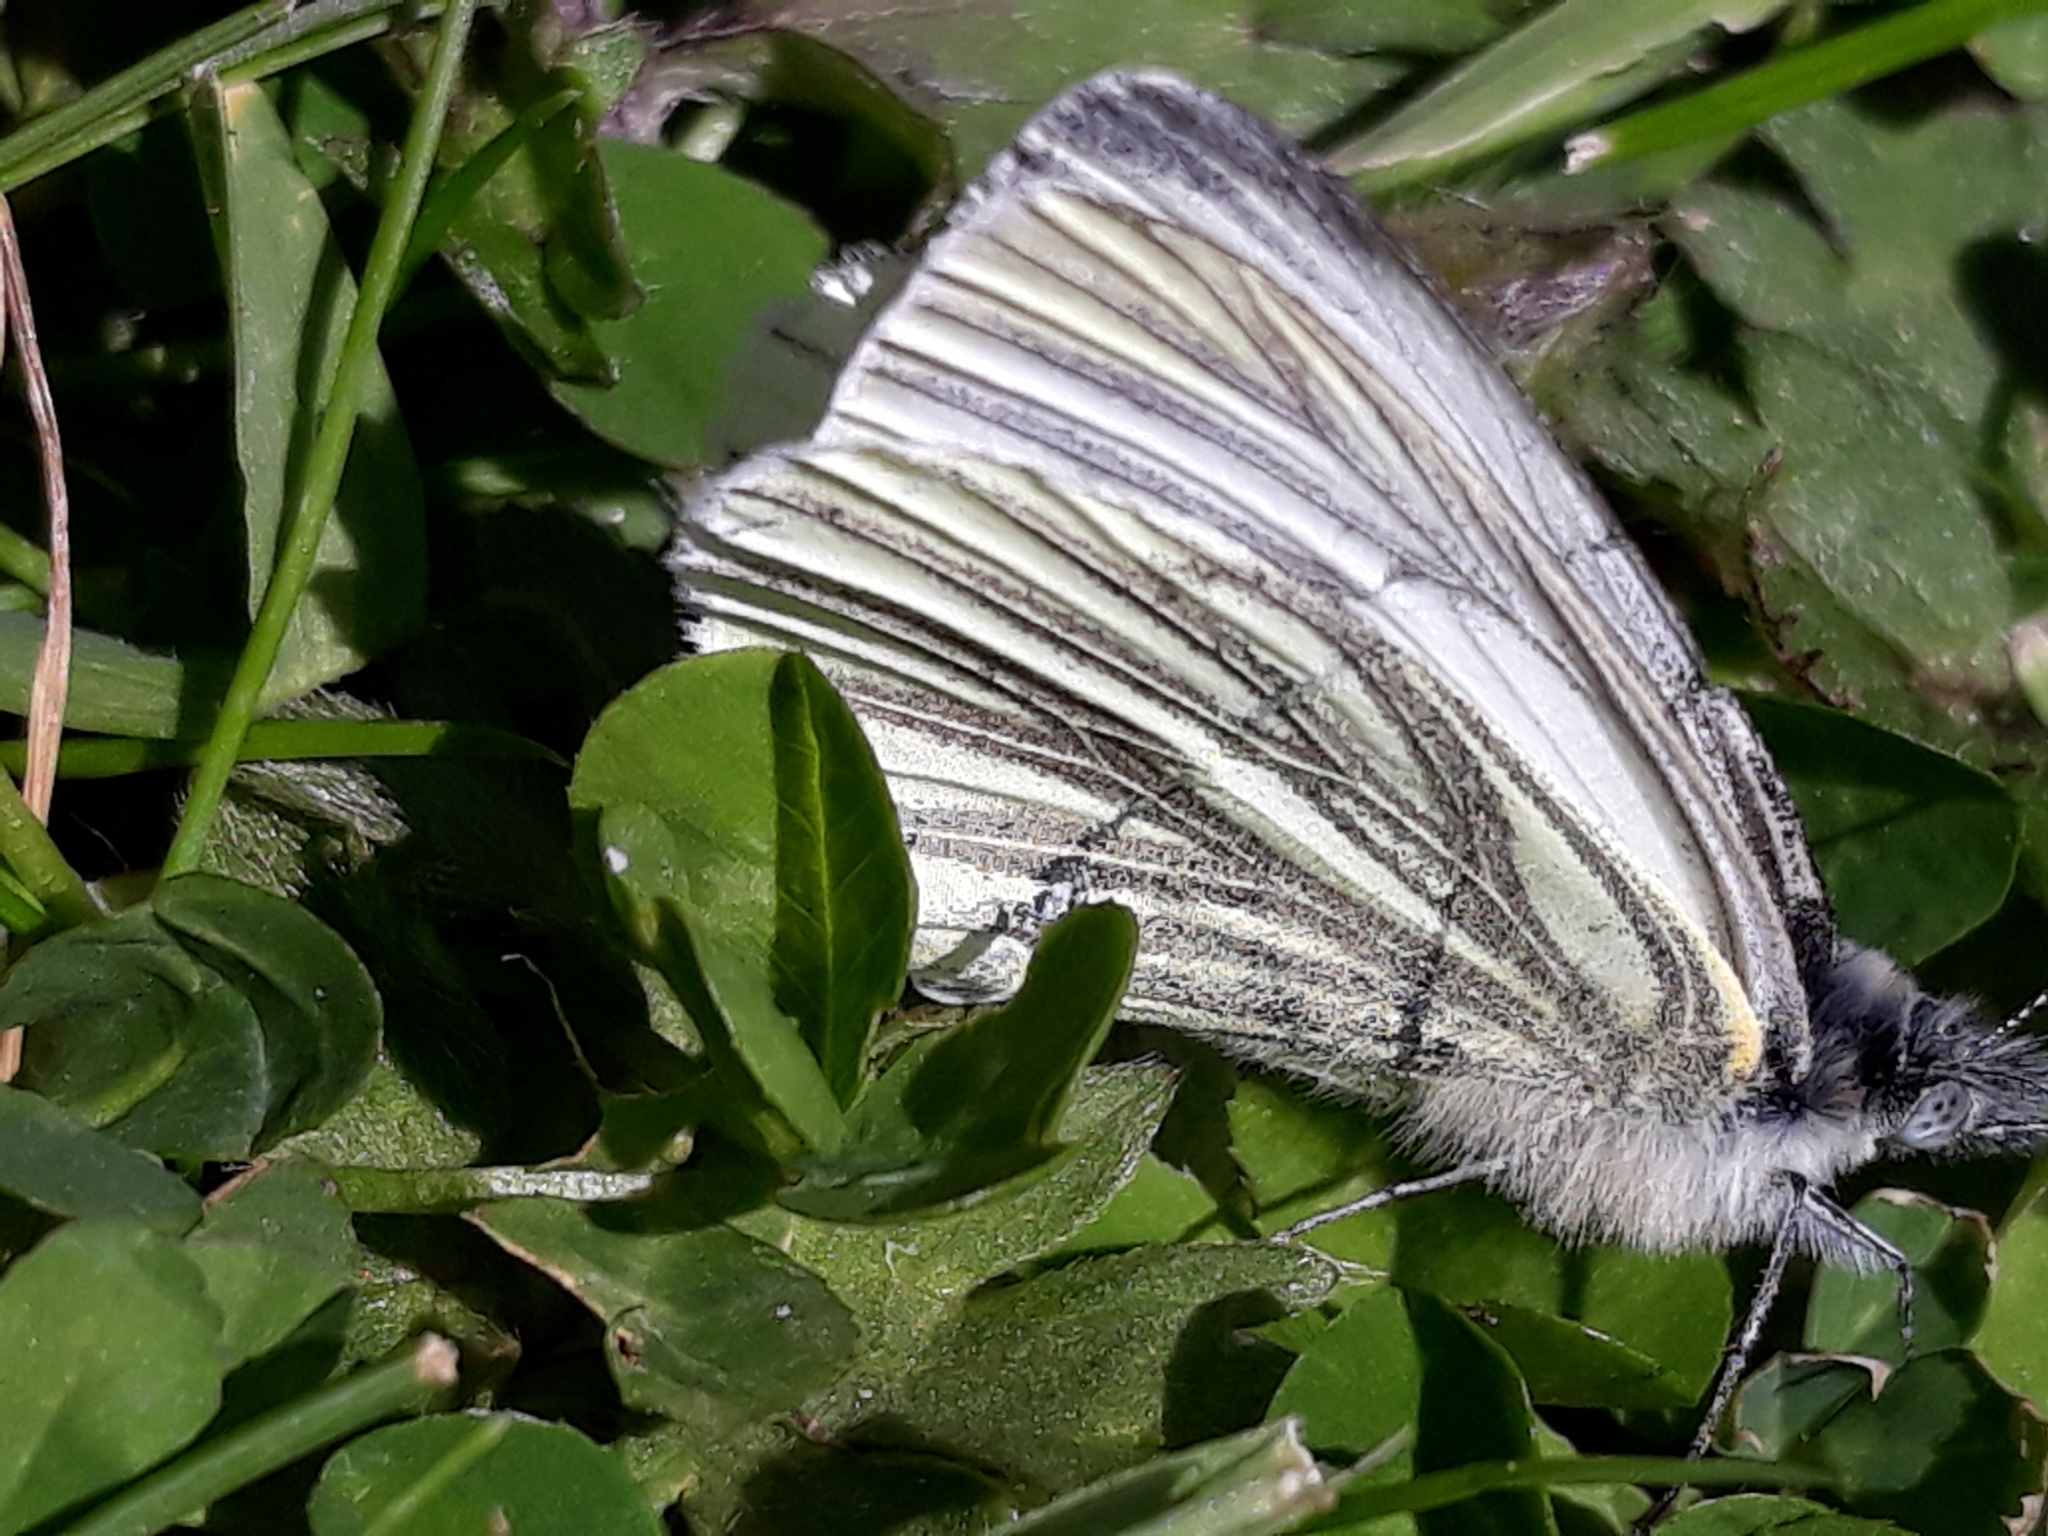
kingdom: Animalia
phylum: Arthropoda
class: Insecta
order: Lepidoptera
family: Pieridae
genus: Pieris
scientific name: Pieris napi
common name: Green-veined white
